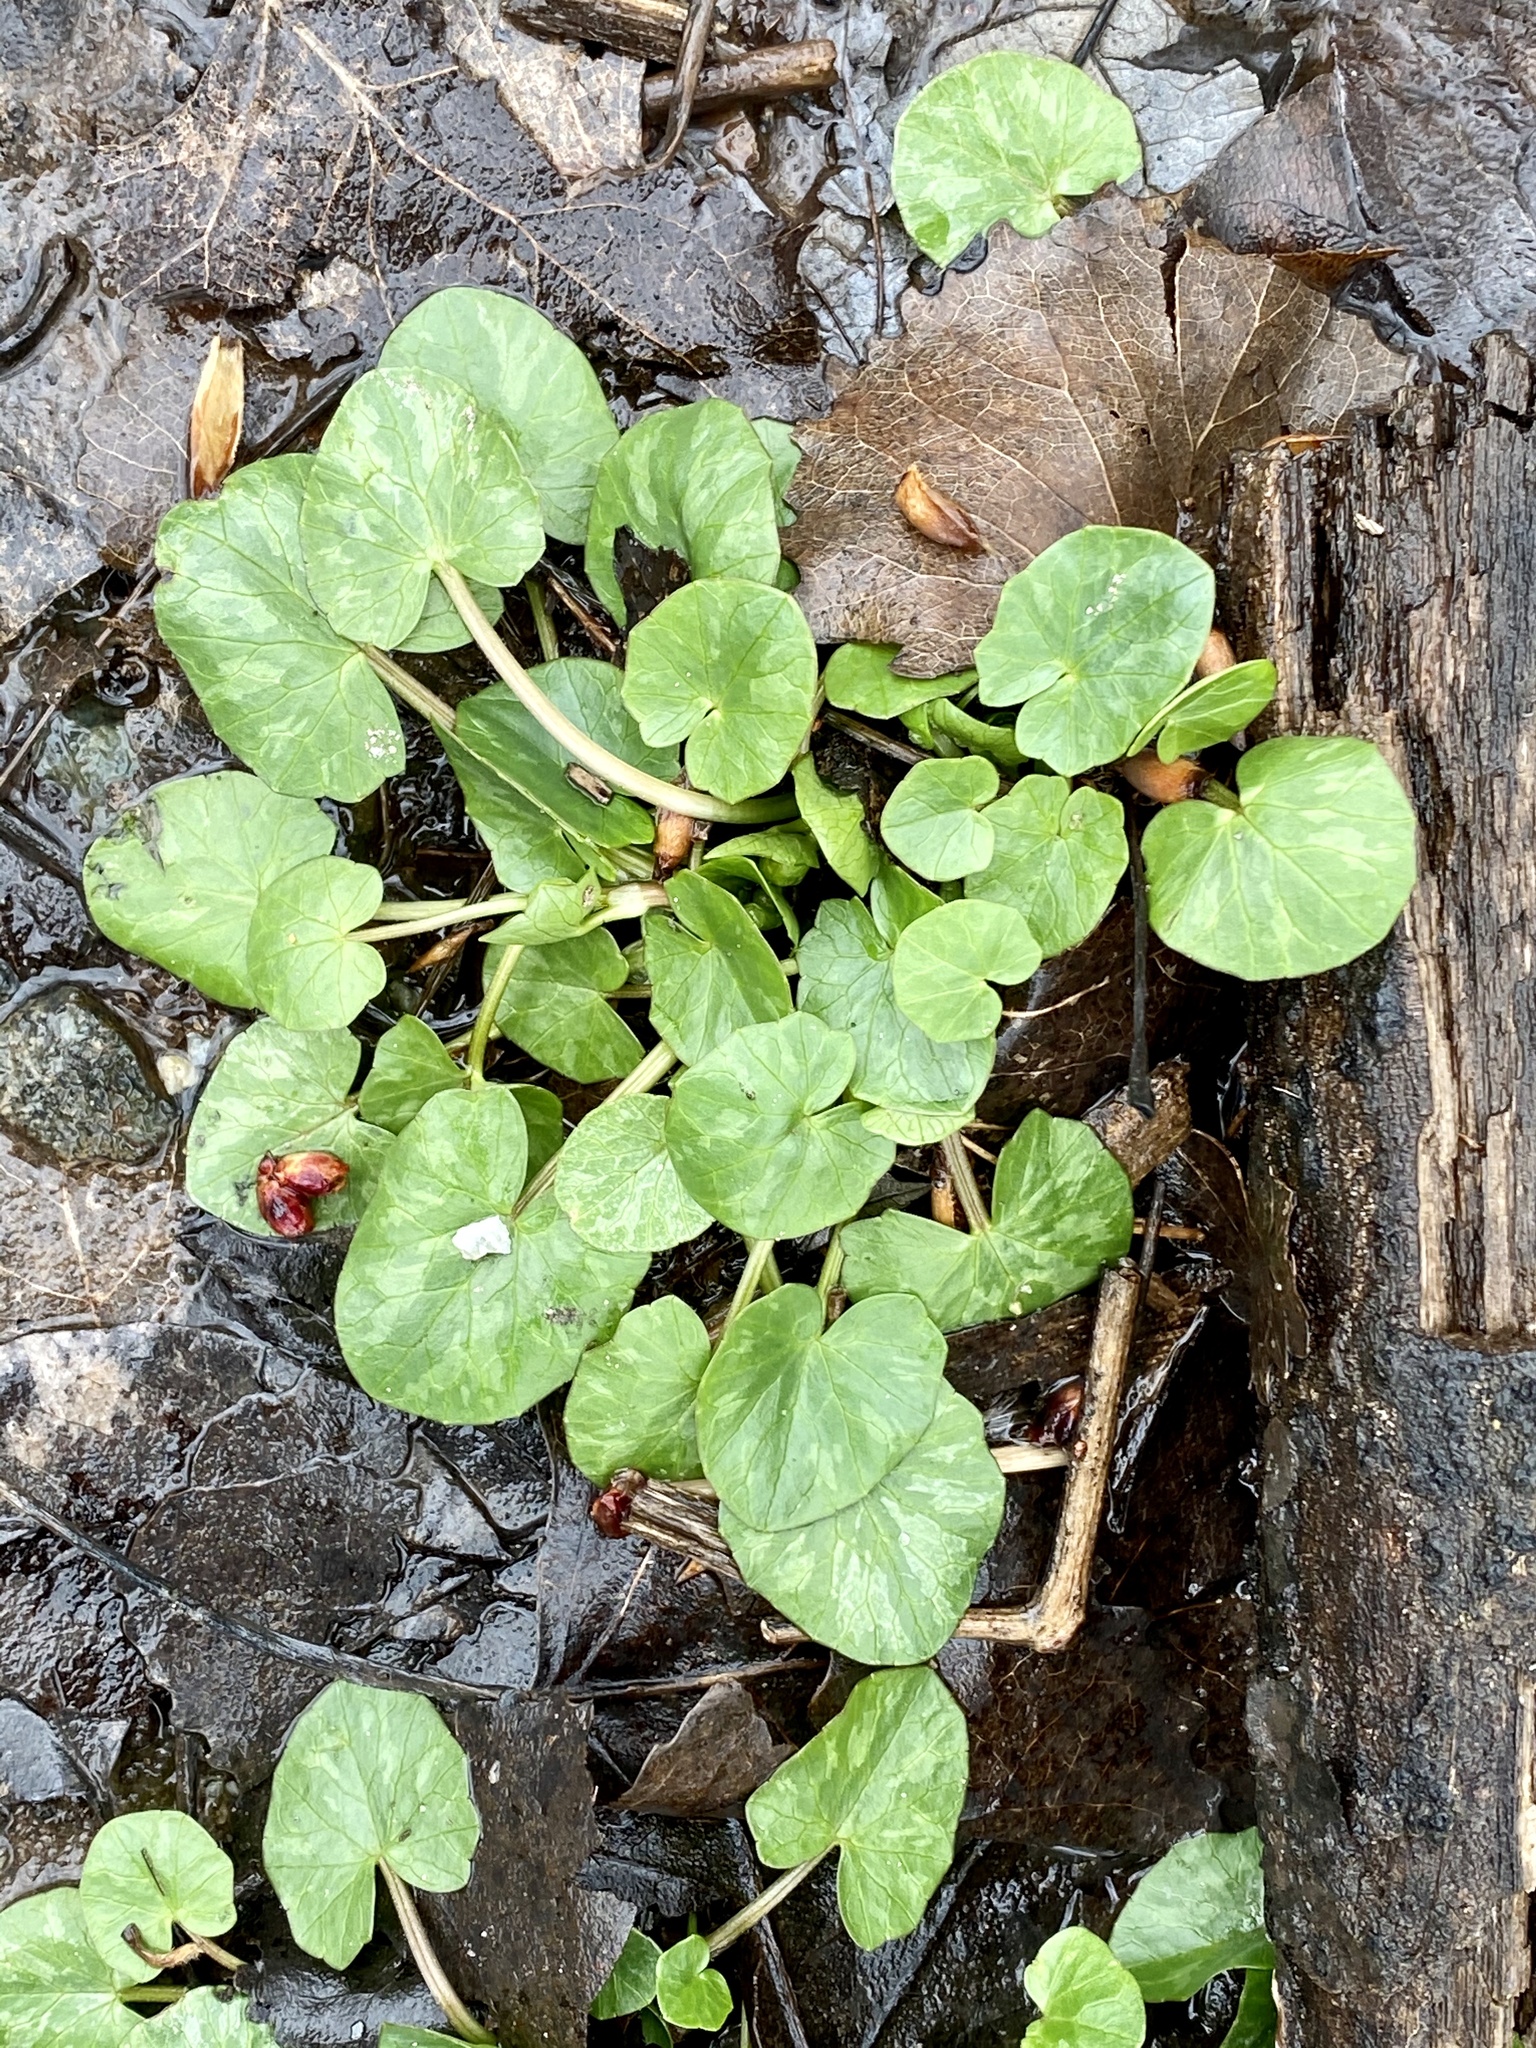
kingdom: Plantae
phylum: Tracheophyta
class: Magnoliopsida
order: Ranunculales
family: Ranunculaceae
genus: Ficaria
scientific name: Ficaria verna
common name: Lesser celandine
